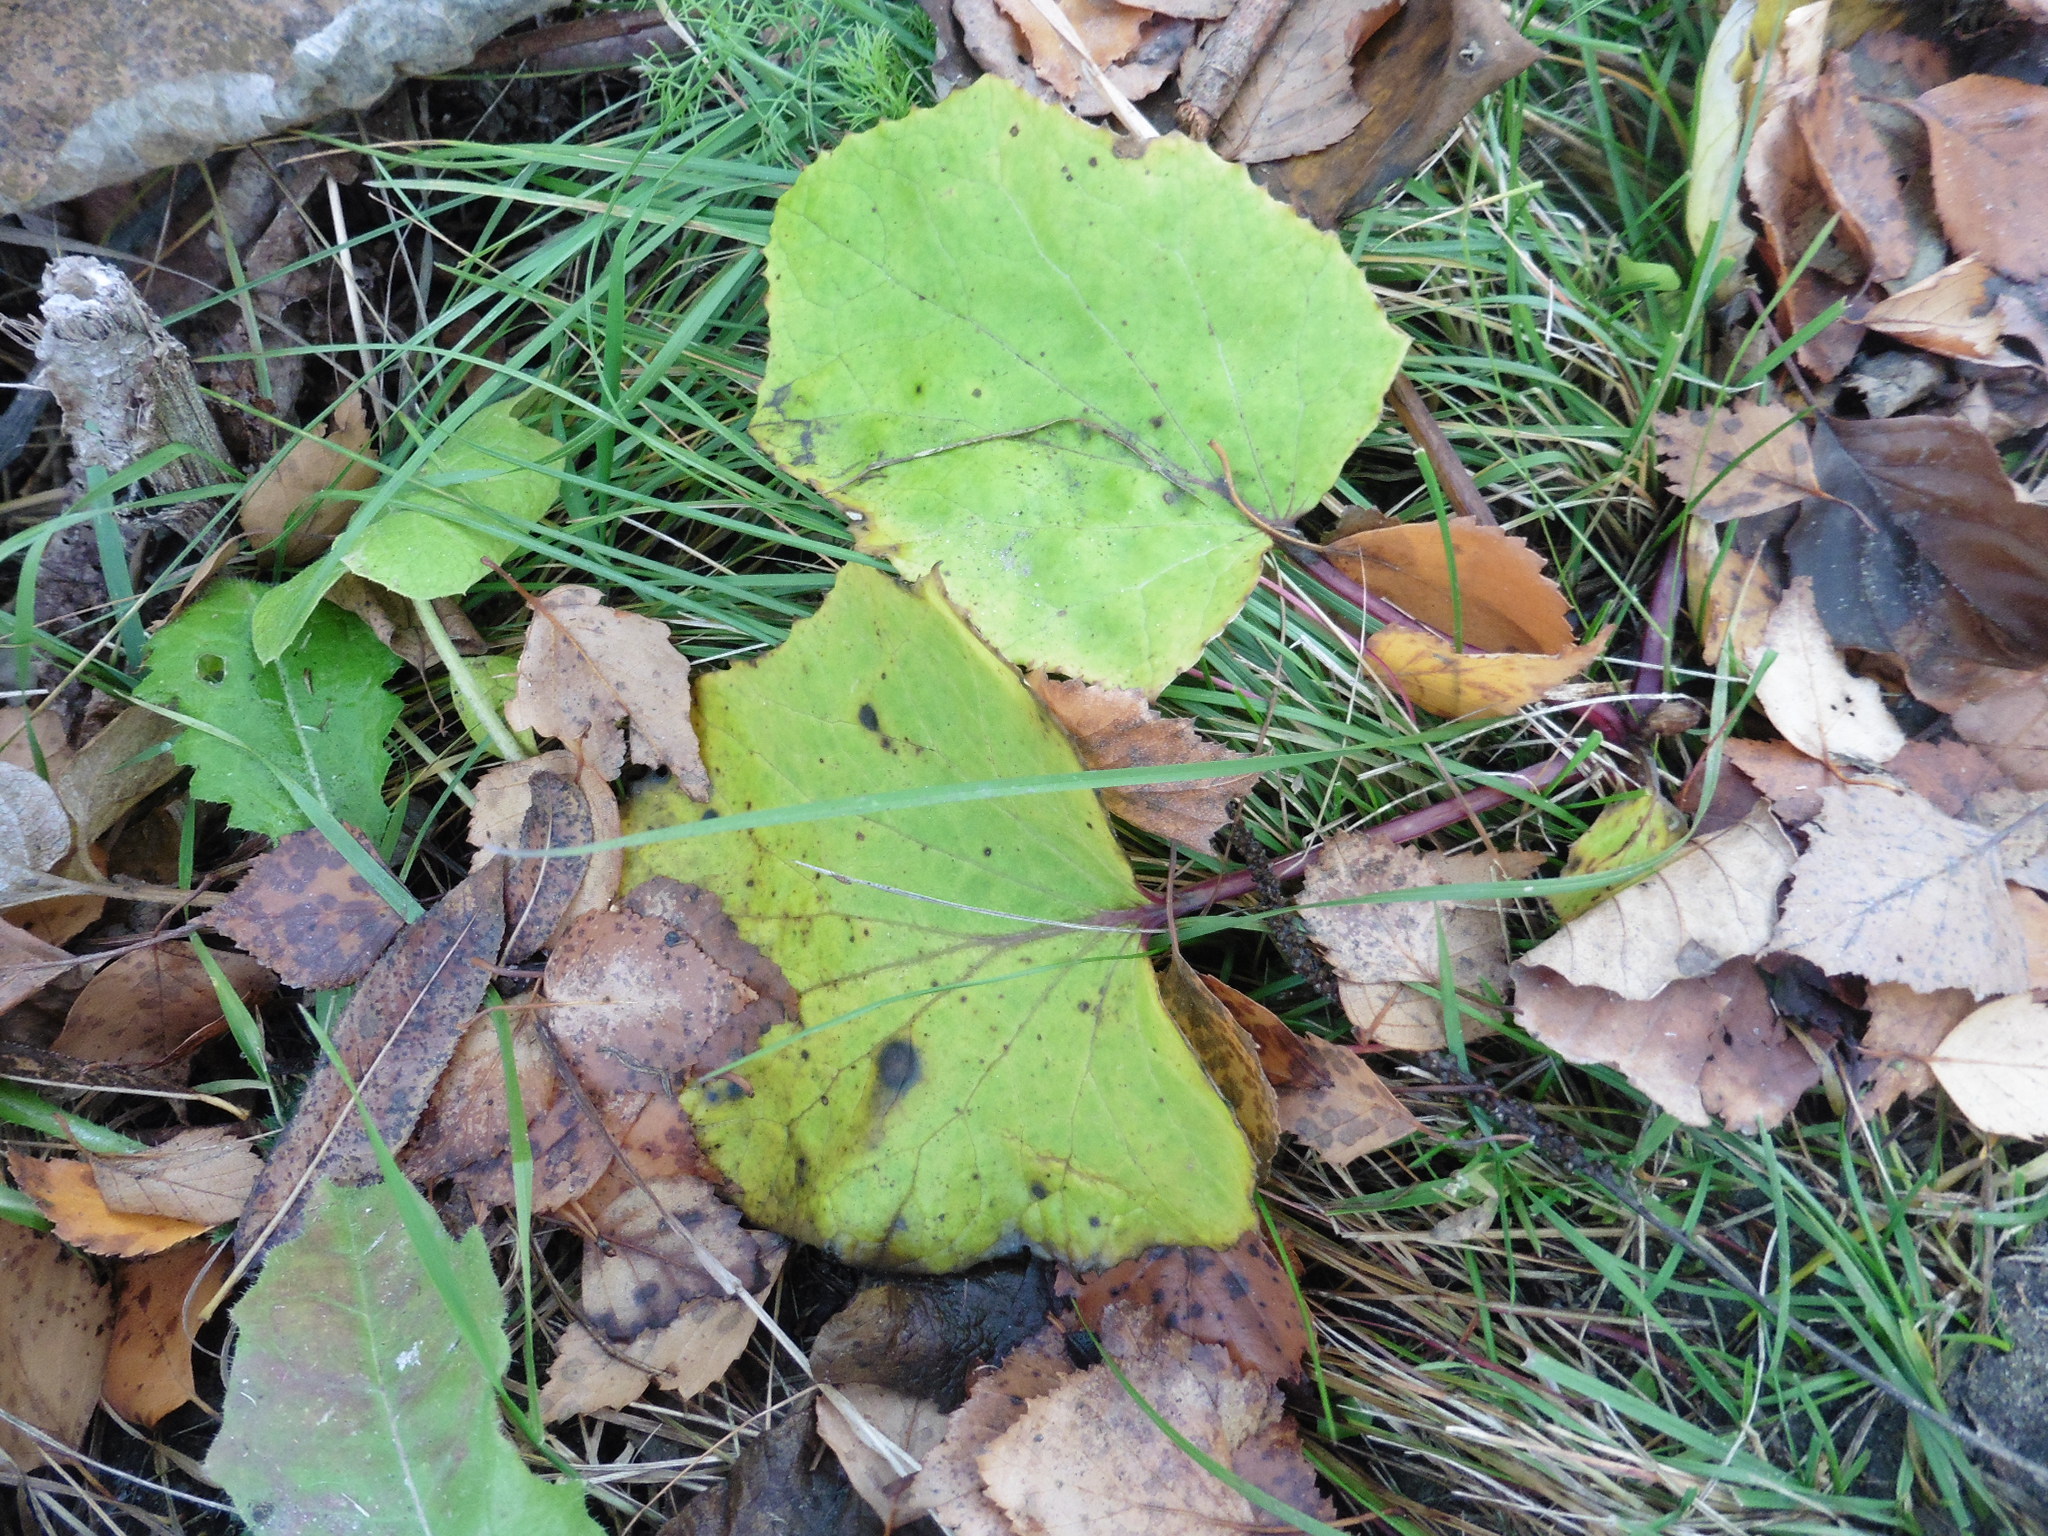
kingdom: Plantae
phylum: Tracheophyta
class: Magnoliopsida
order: Asterales
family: Asteraceae
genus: Tussilago
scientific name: Tussilago farfara
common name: Coltsfoot
